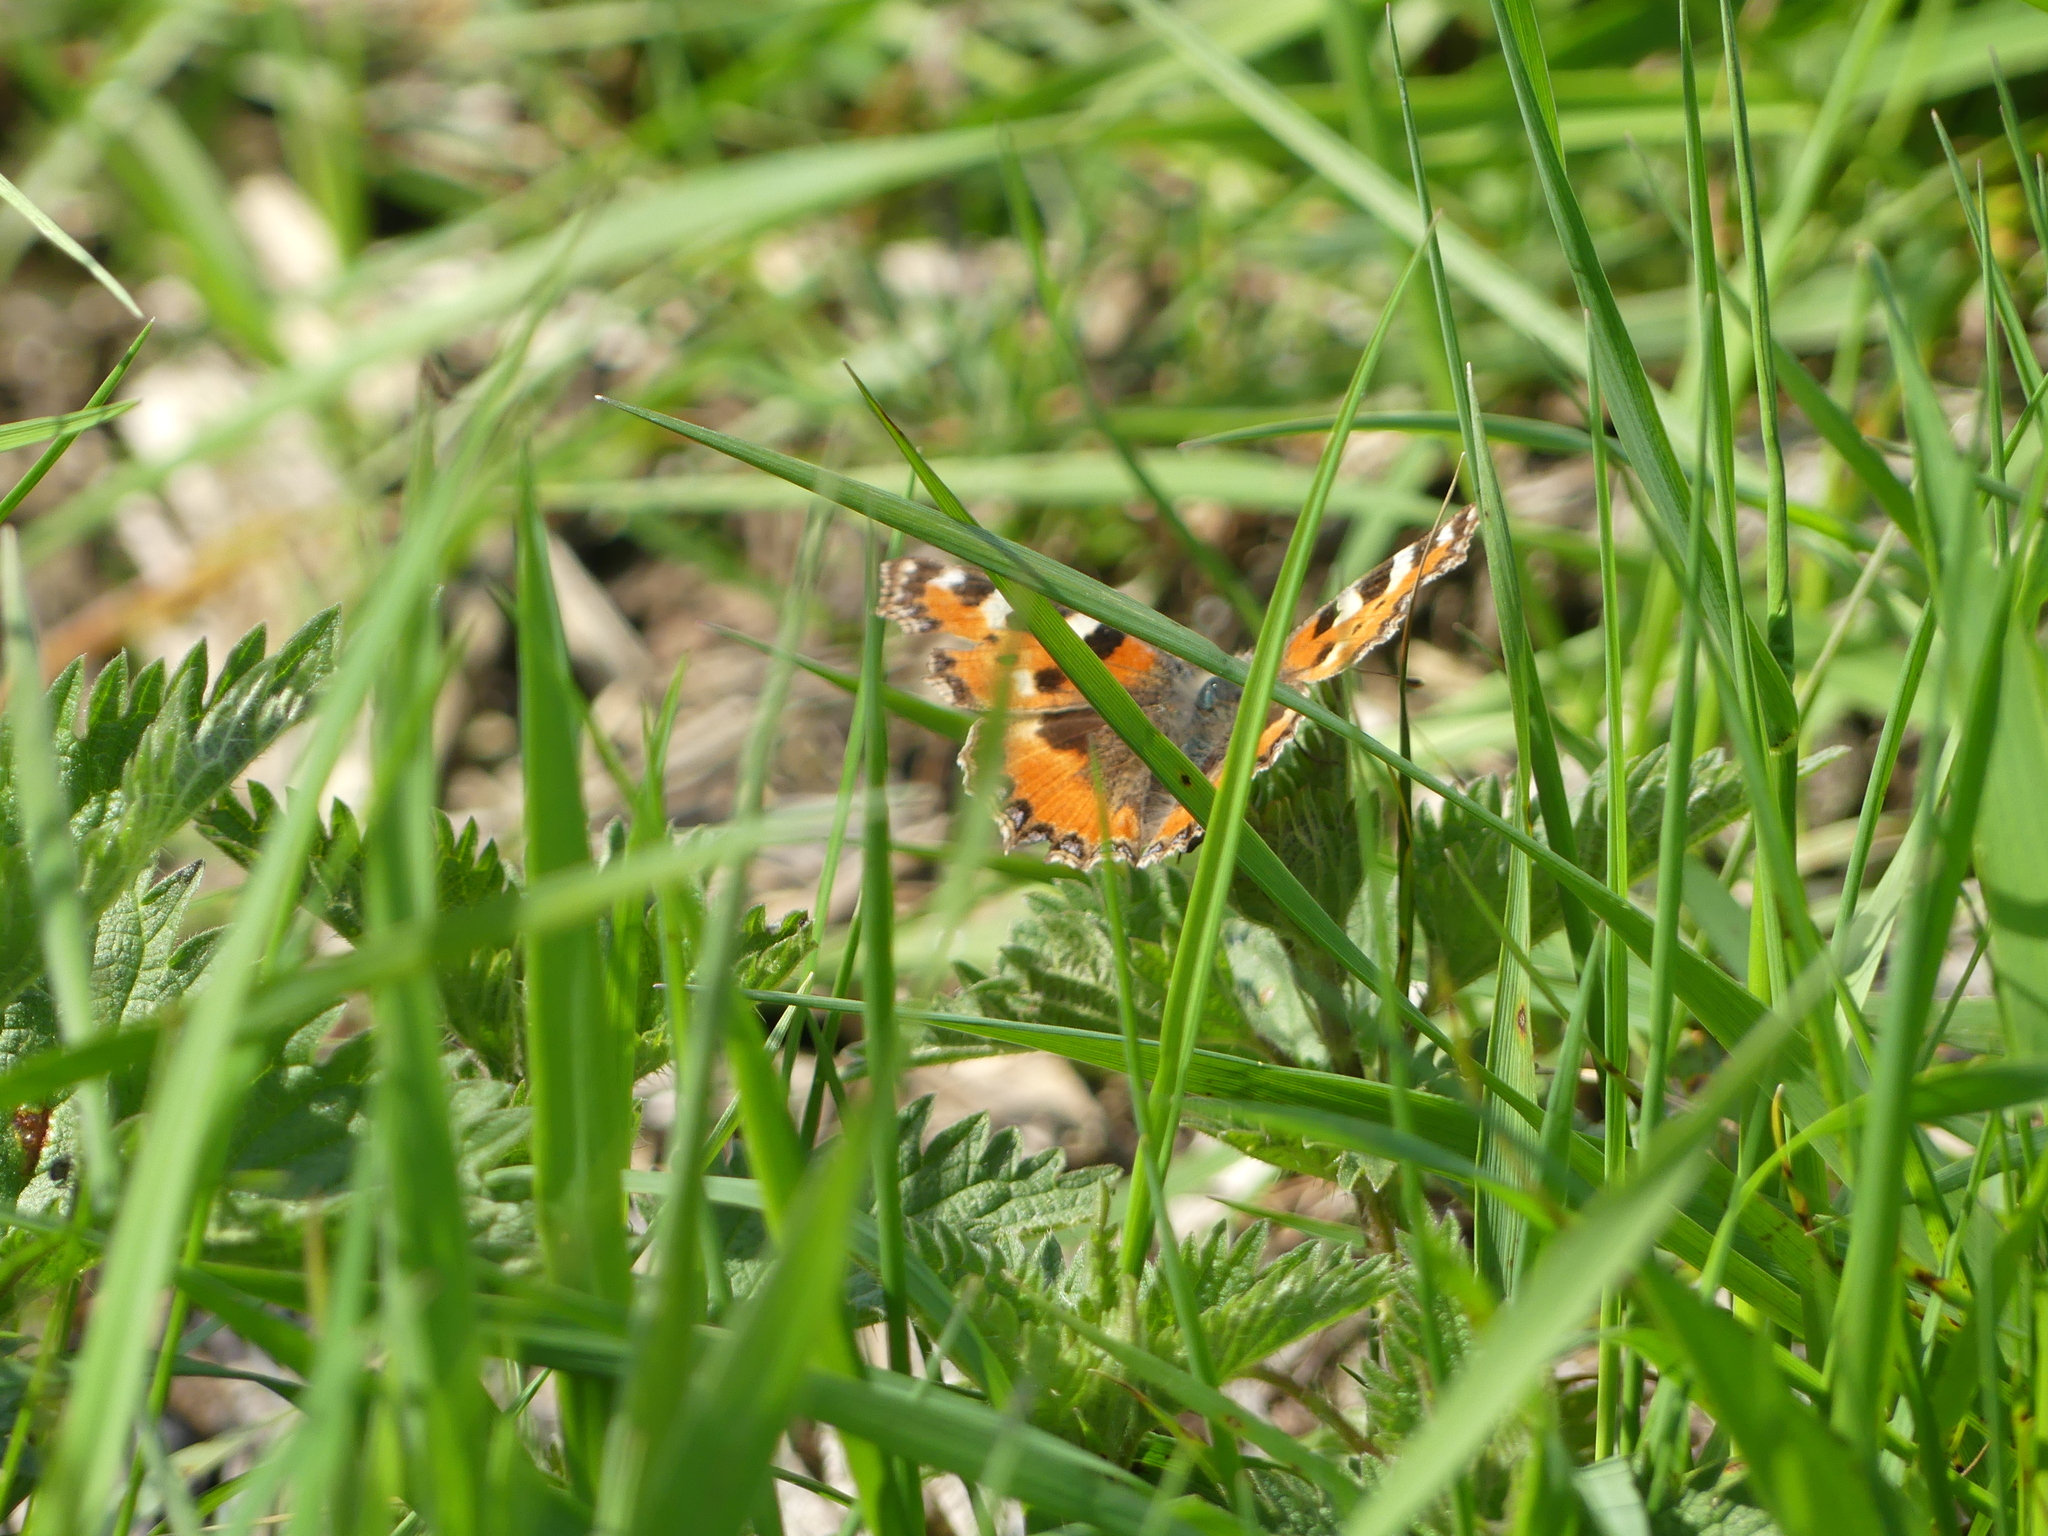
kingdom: Animalia
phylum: Arthropoda
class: Insecta
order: Lepidoptera
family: Nymphalidae
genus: Aglais
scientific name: Aglais urticae
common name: Small tortoiseshell
